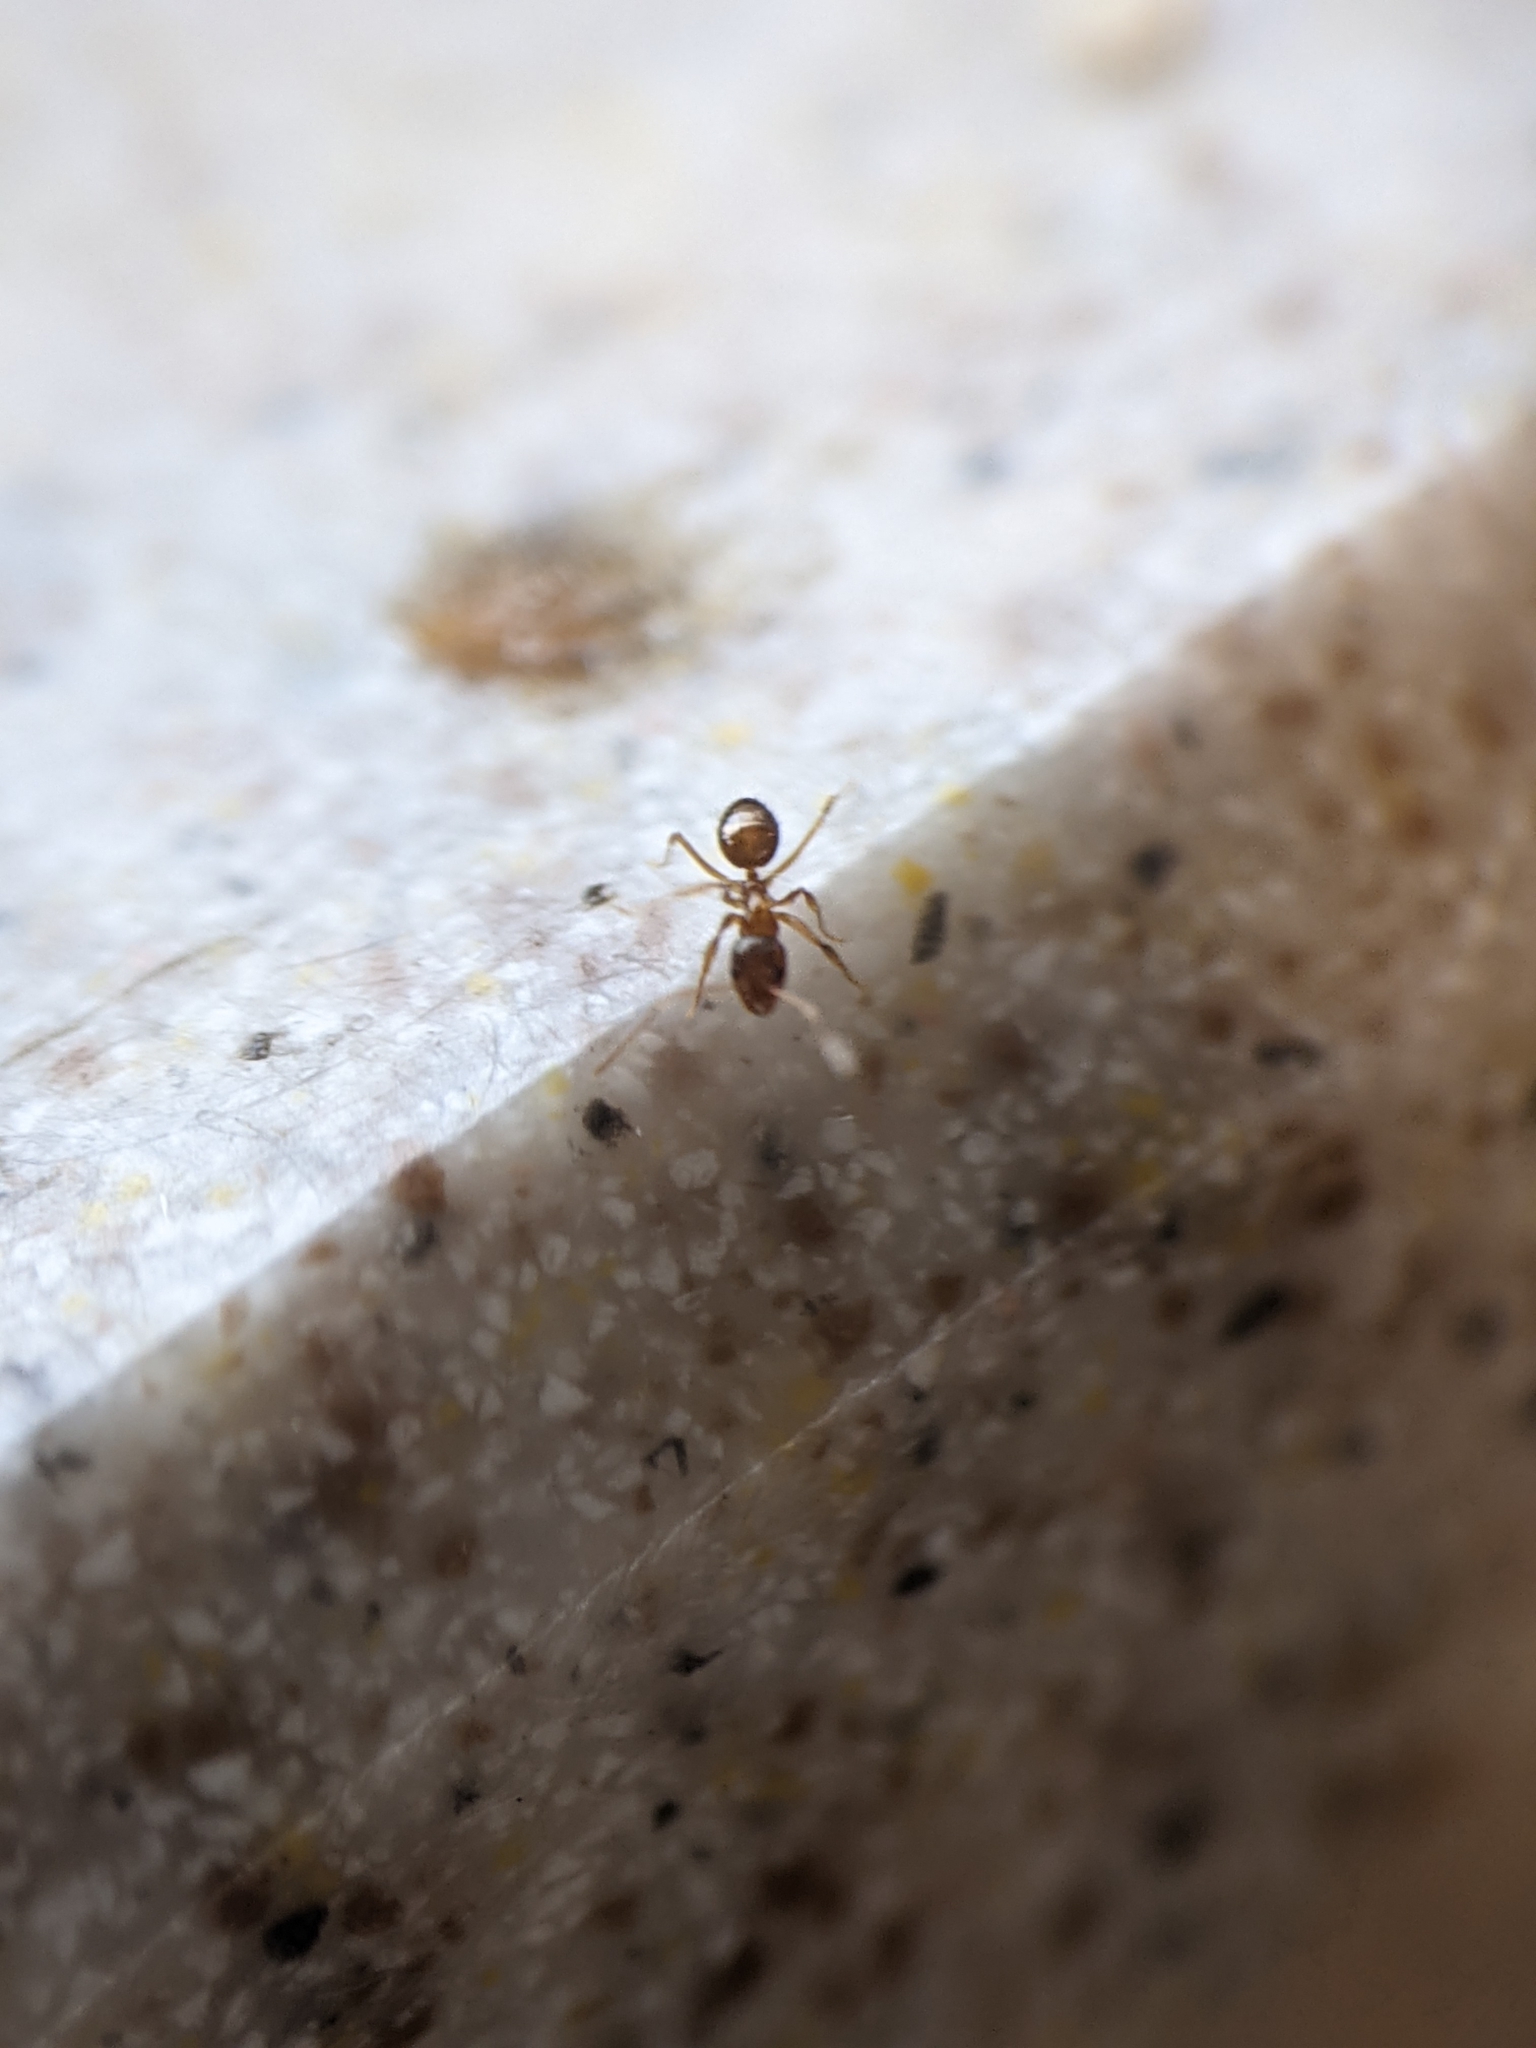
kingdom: Animalia
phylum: Arthropoda
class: Insecta
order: Hymenoptera
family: Formicidae
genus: Paratrechina
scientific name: Paratrechina flavipes
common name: Eastern asian formicine ant
